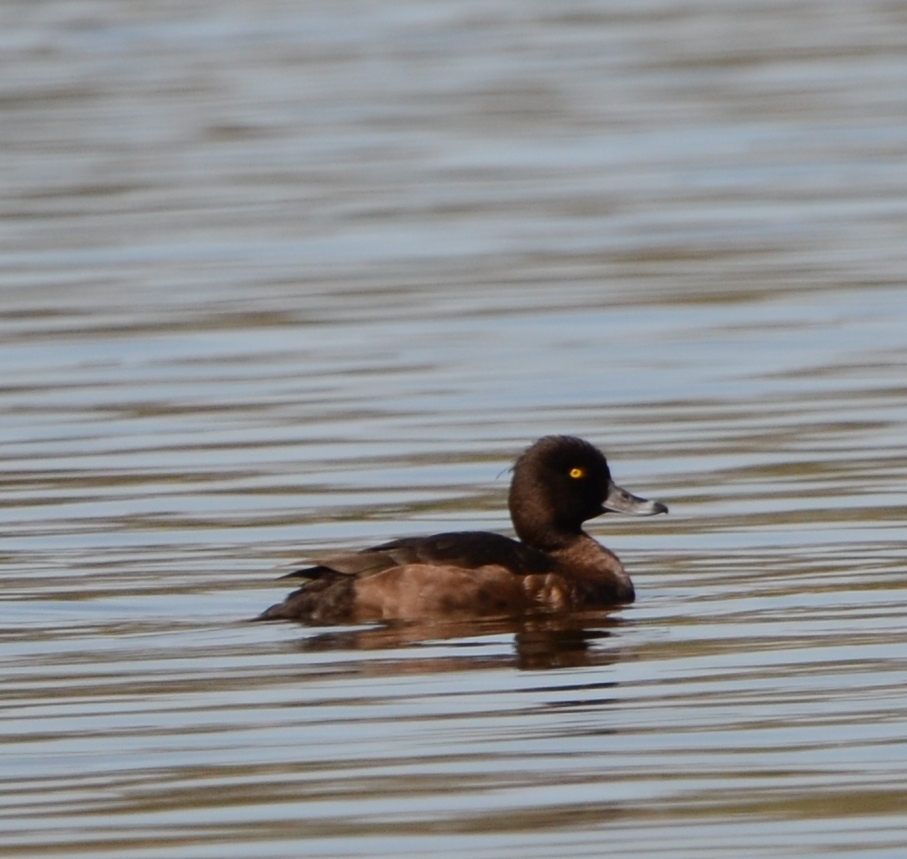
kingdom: Animalia
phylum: Chordata
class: Aves
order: Anseriformes
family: Anatidae
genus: Aythya
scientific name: Aythya fuligula
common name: Tufted duck
